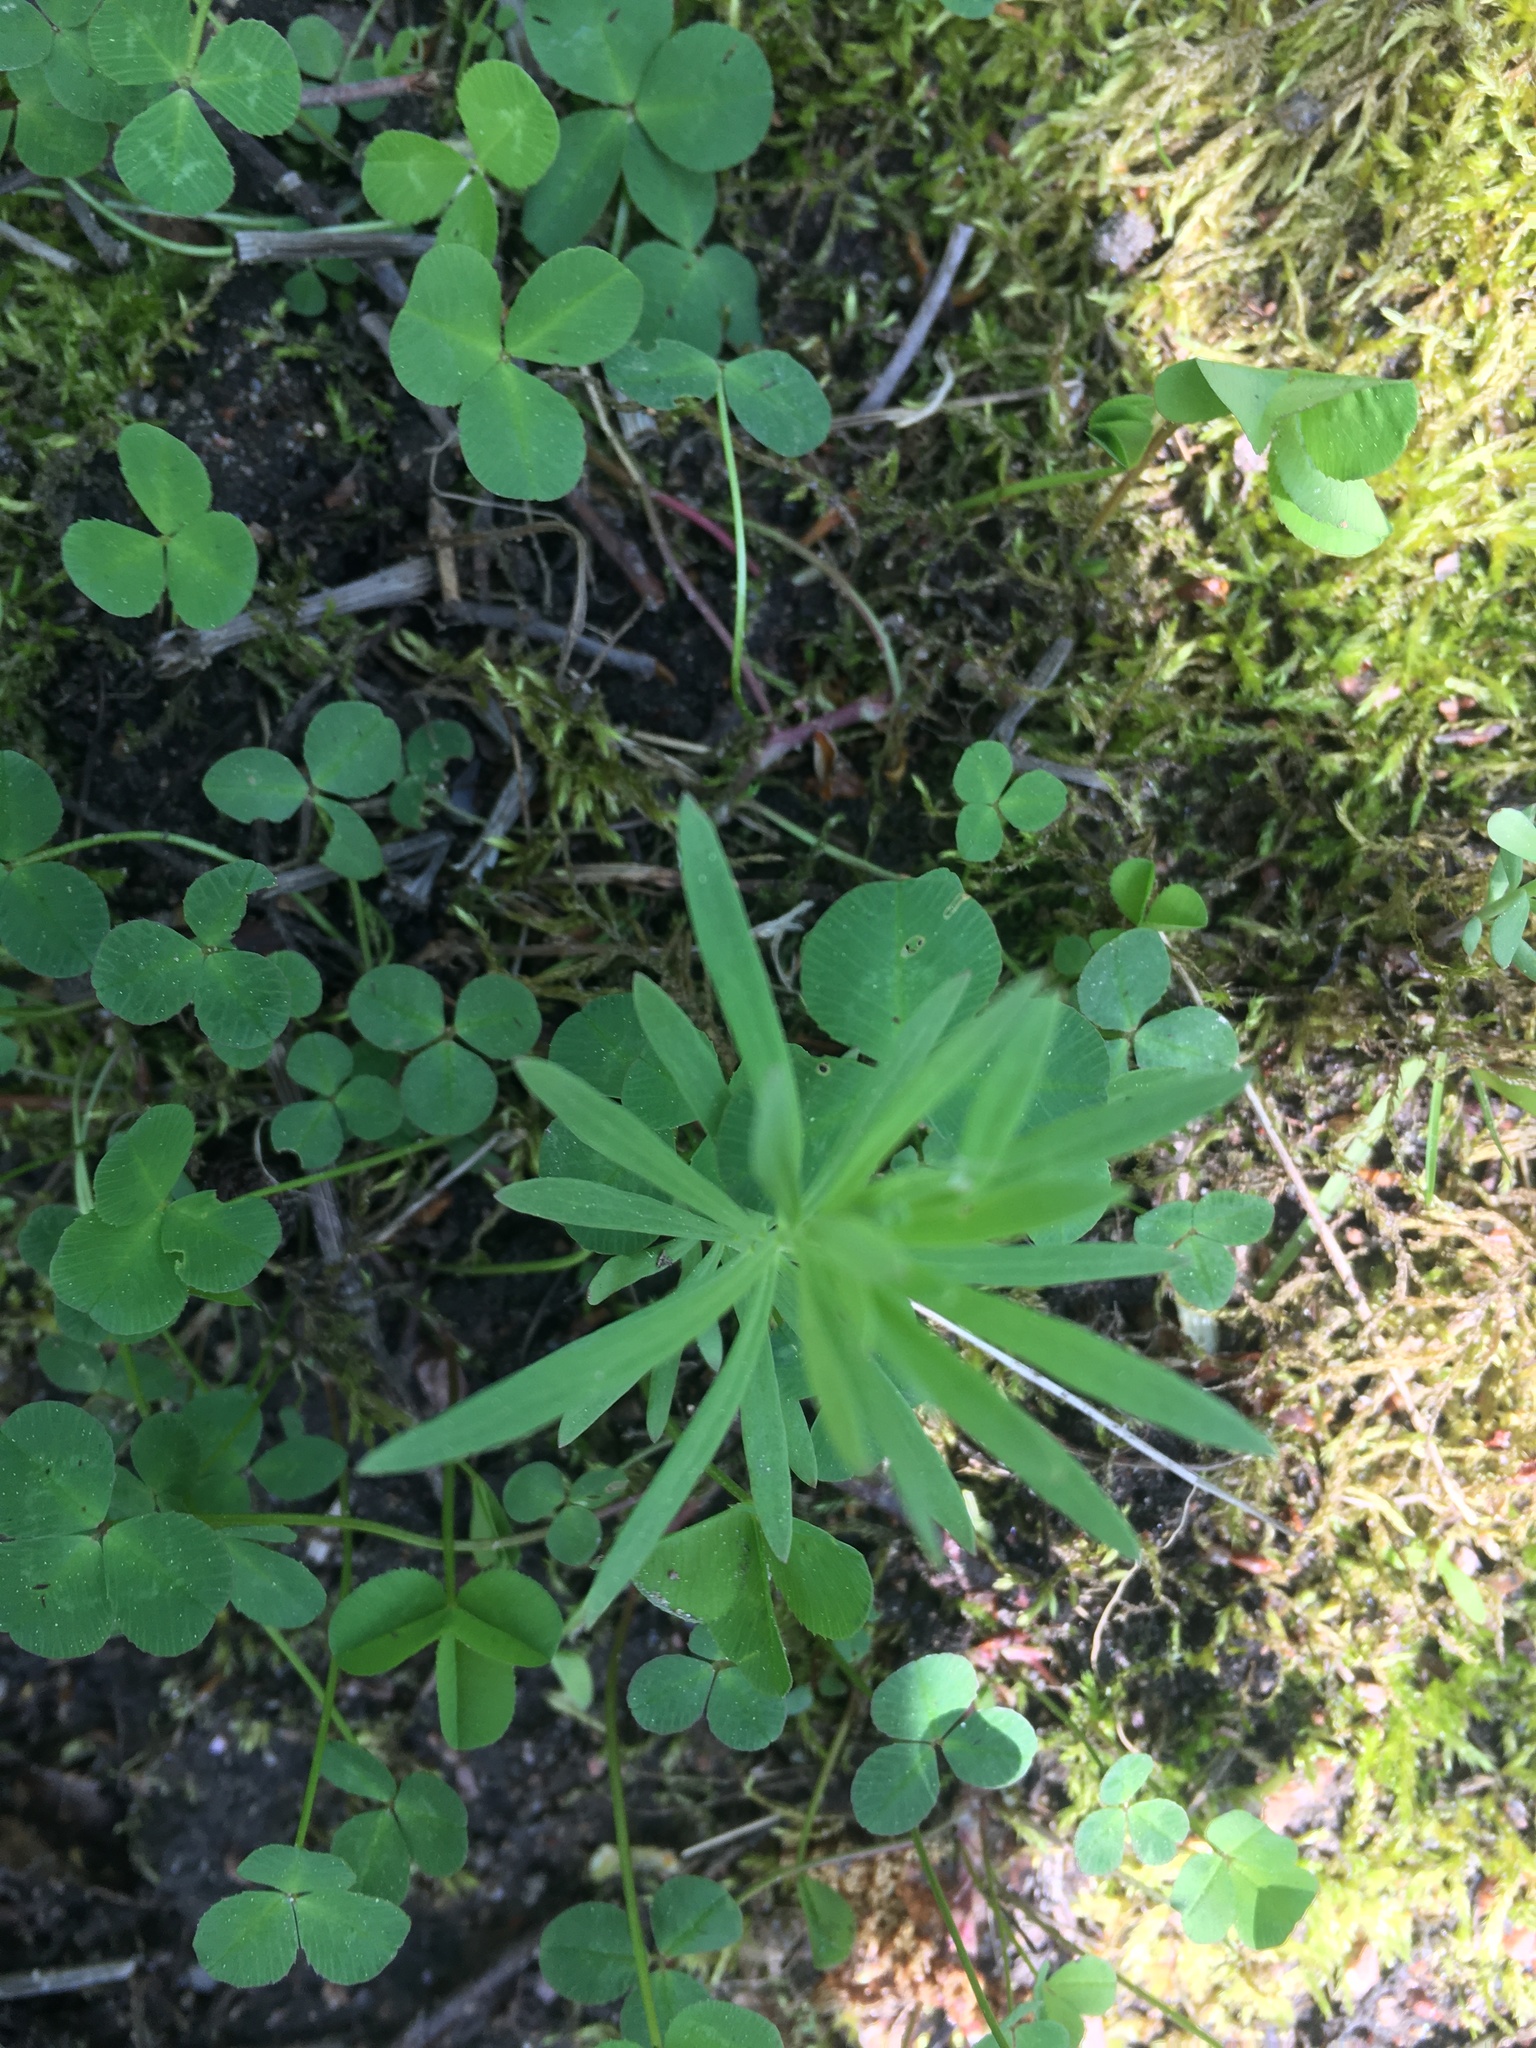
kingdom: Plantae
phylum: Tracheophyta
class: Magnoliopsida
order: Lamiales
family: Plantaginaceae
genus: Linaria
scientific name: Linaria vulgaris
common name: Butter and eggs
